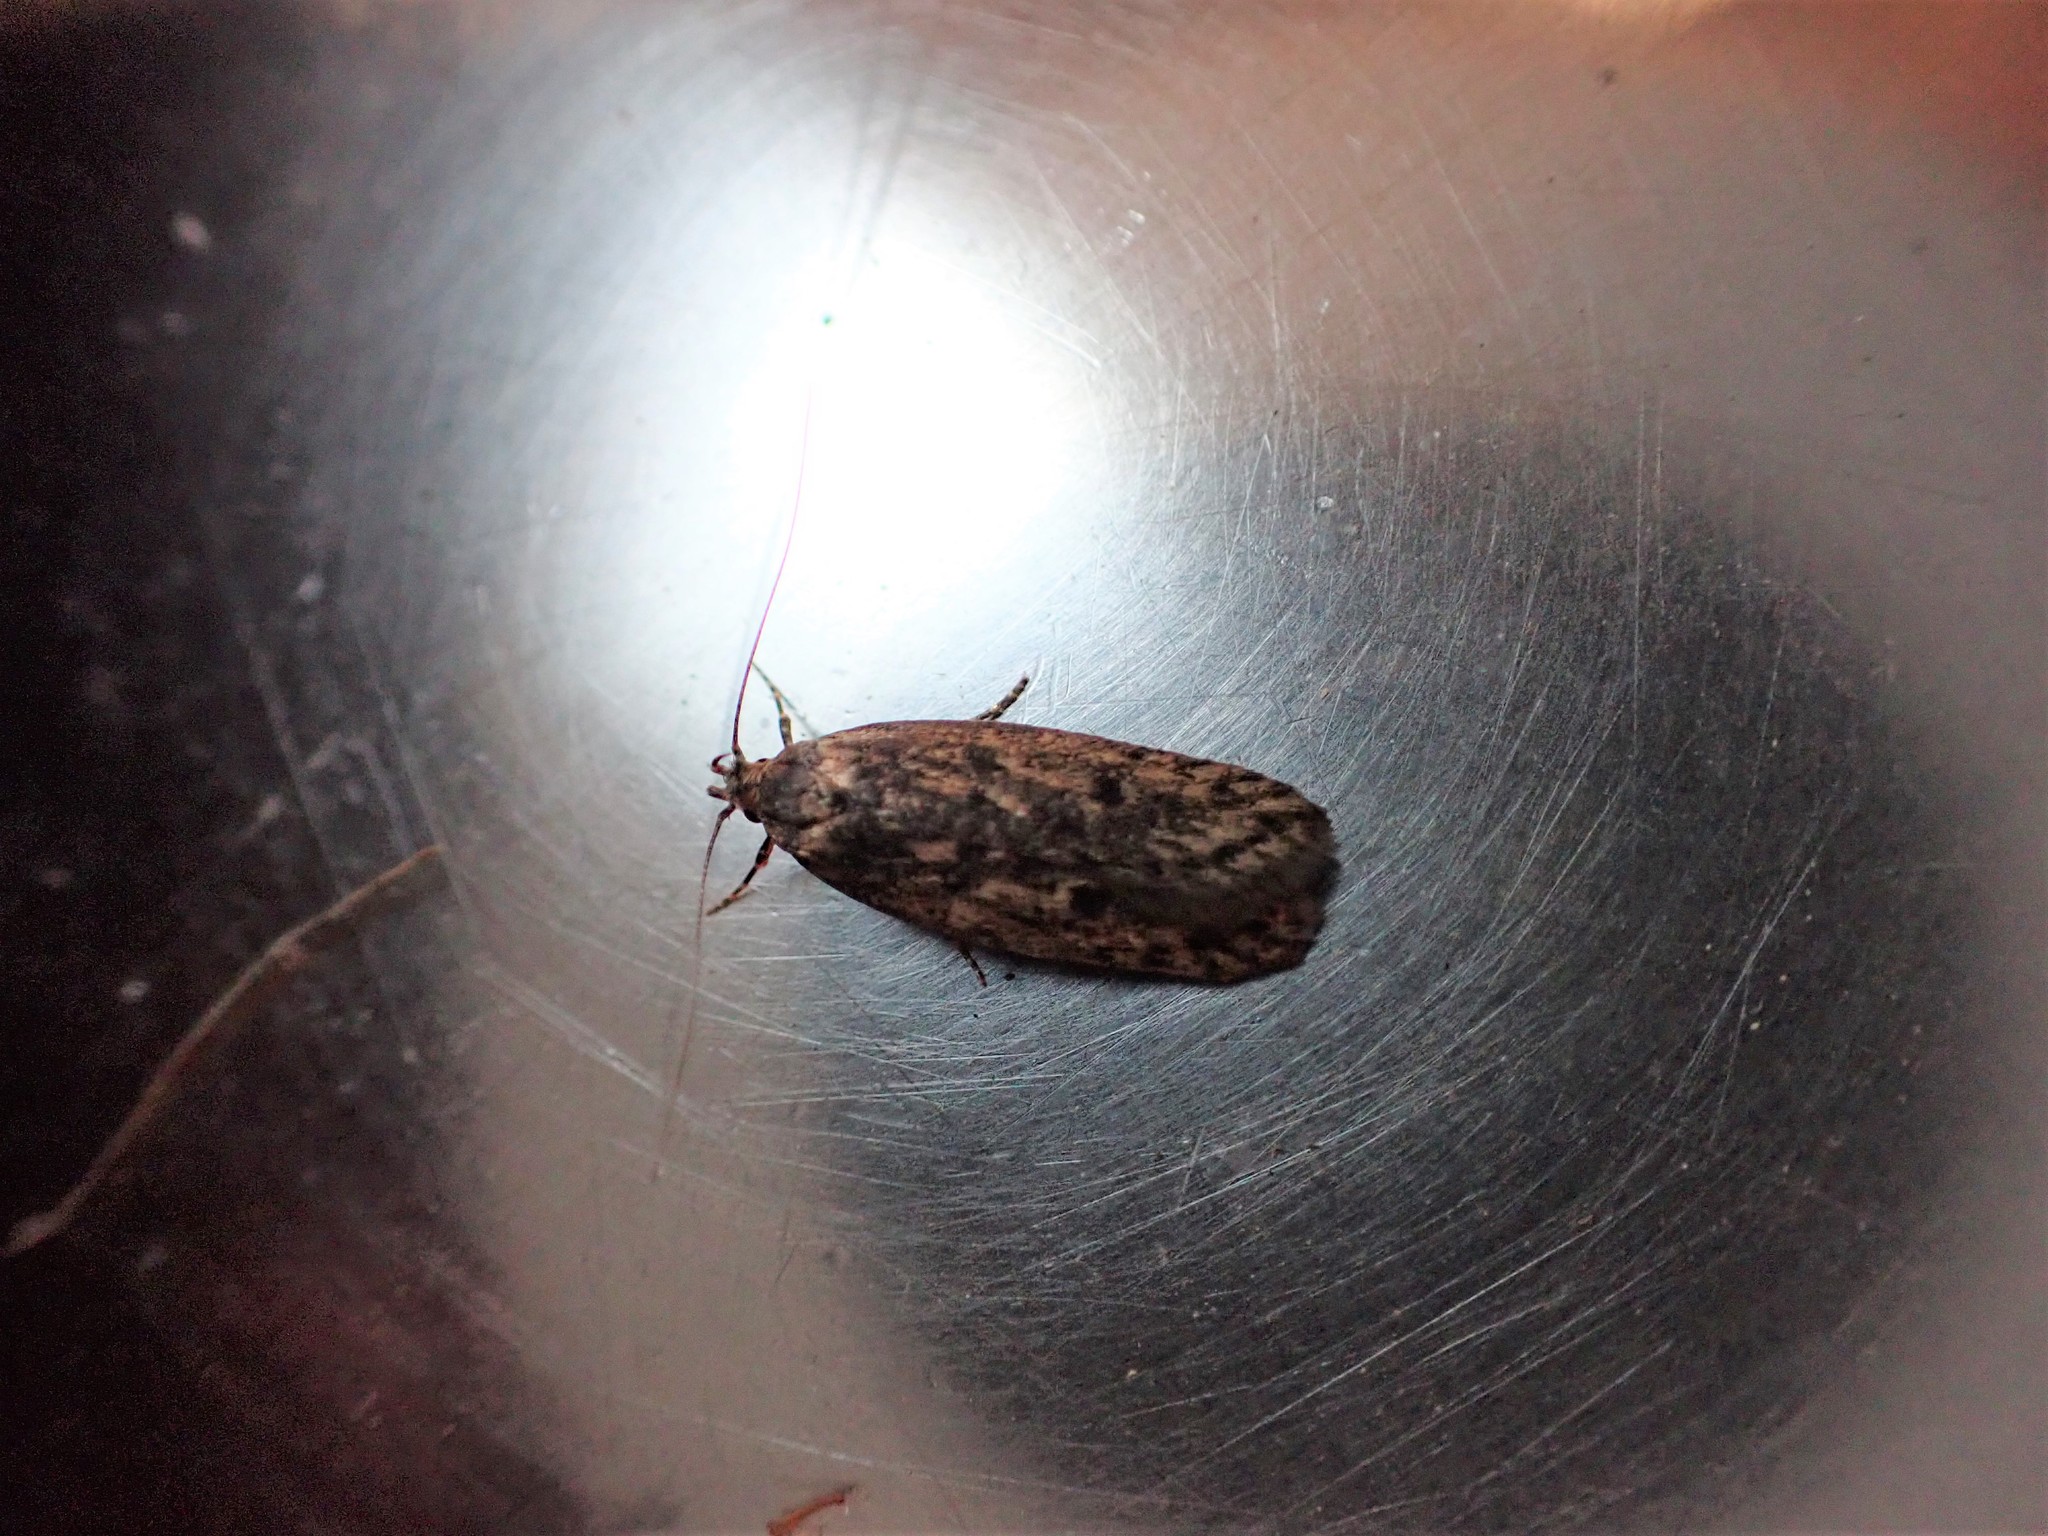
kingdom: Animalia
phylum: Arthropoda
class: Insecta
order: Lepidoptera
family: Oecophoridae
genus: Hofmannophila
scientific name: Hofmannophila pseudospretella
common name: Brown house moth
